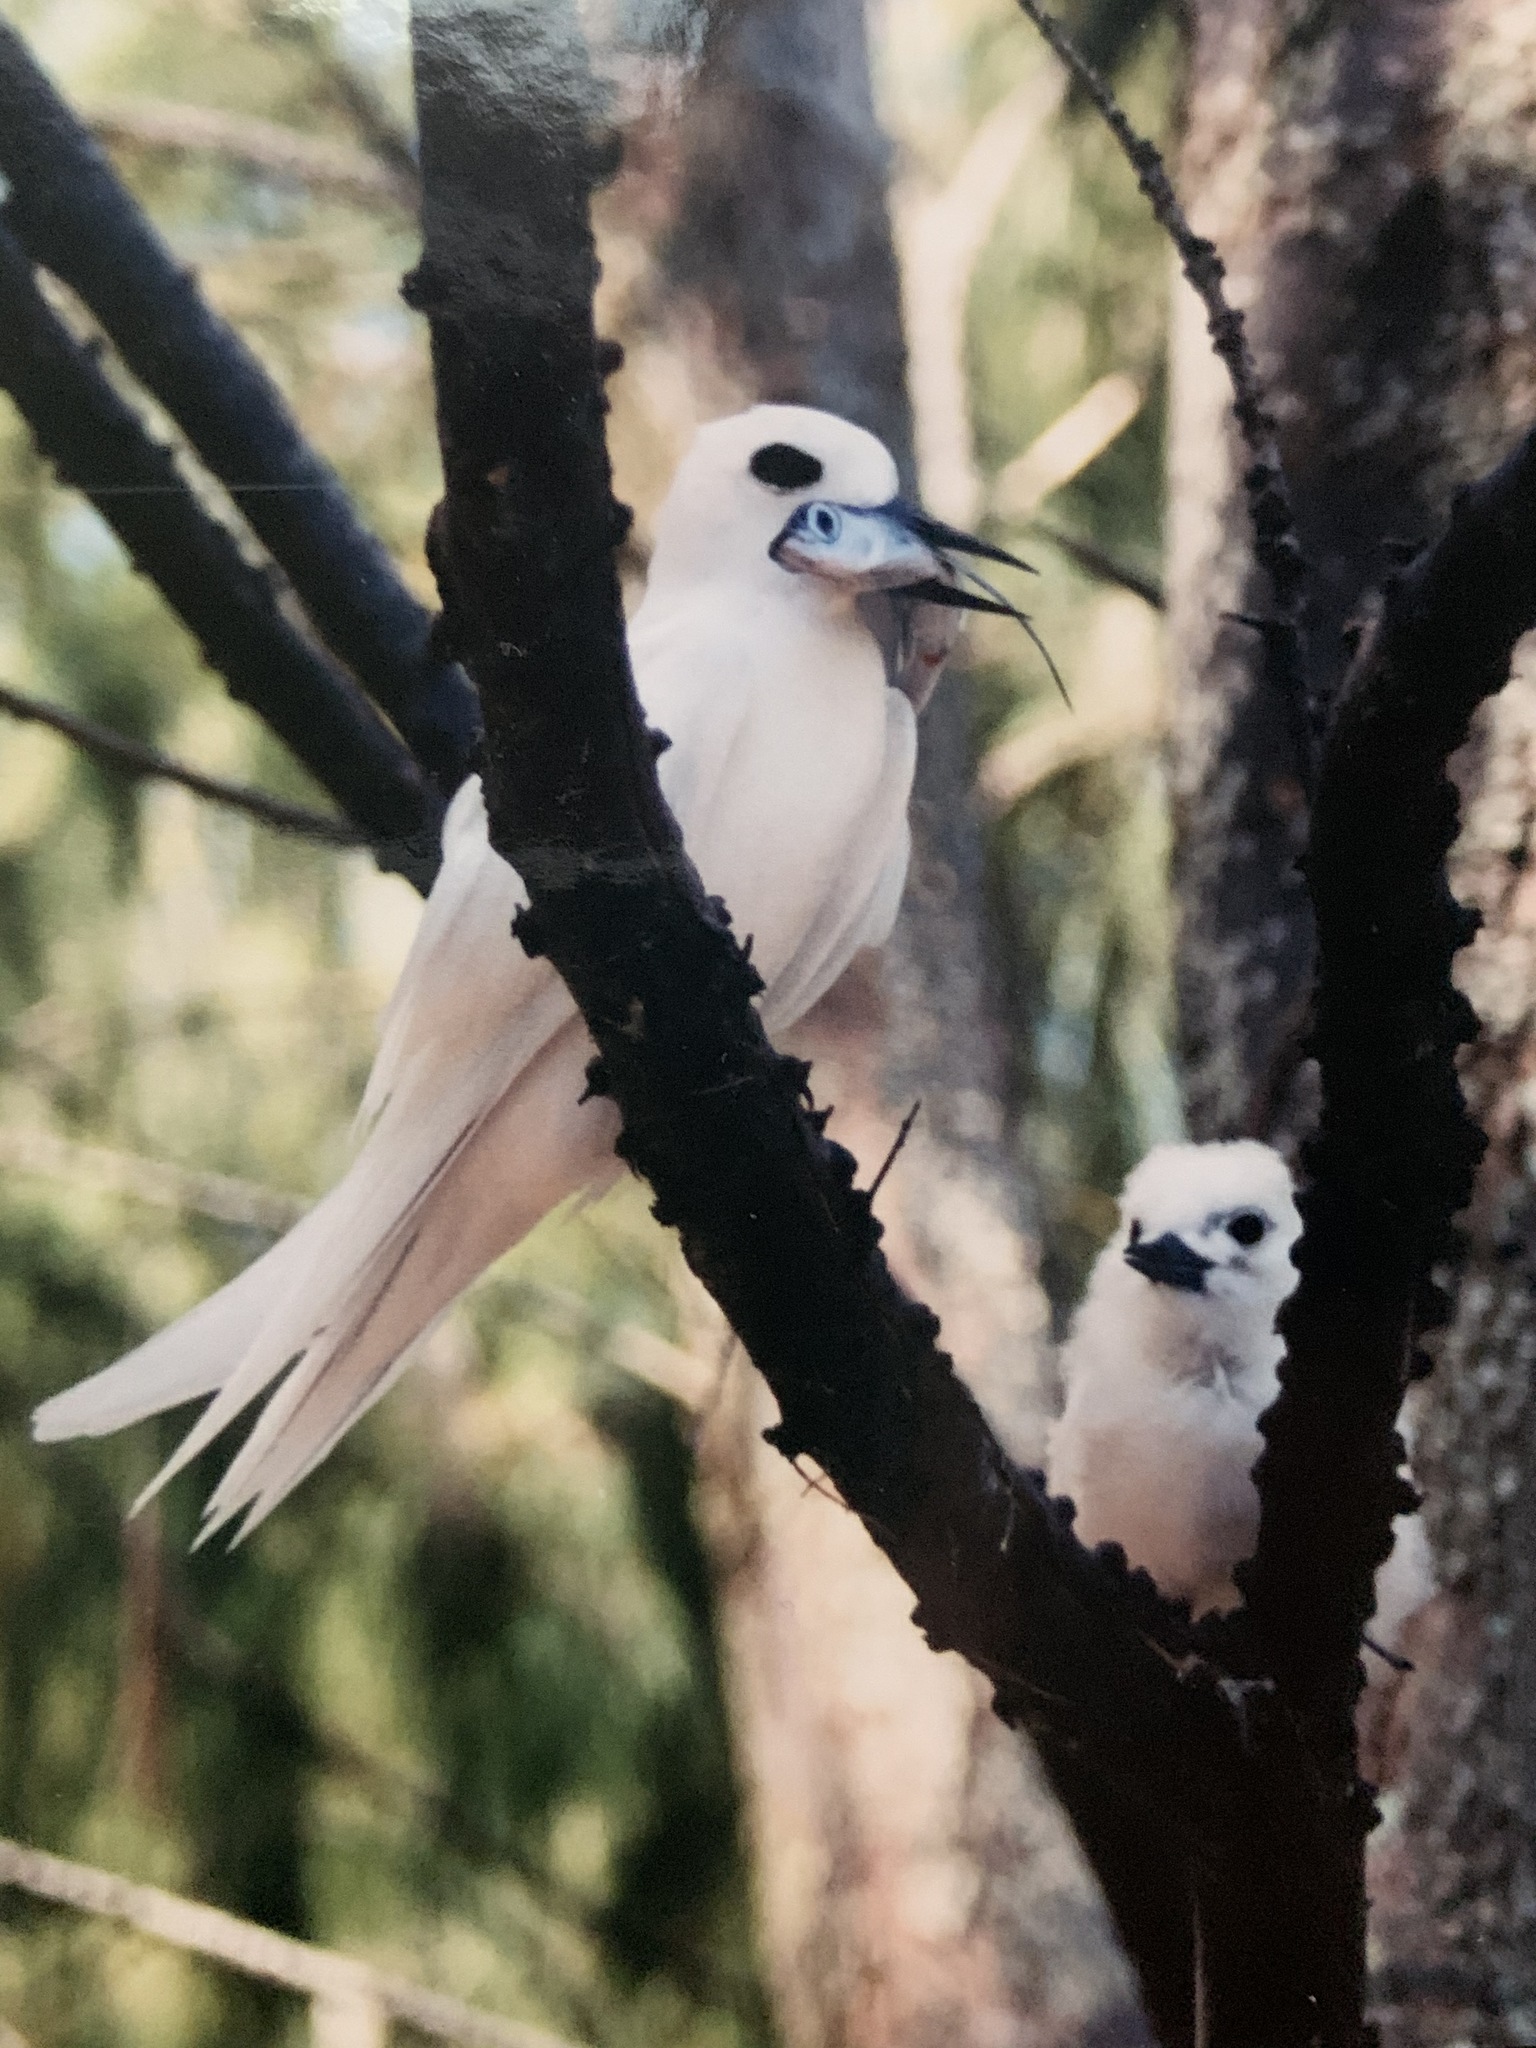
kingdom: Animalia
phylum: Chordata
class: Aves
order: Charadriiformes
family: Laridae
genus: Gygis
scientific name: Gygis alba
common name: White tern
